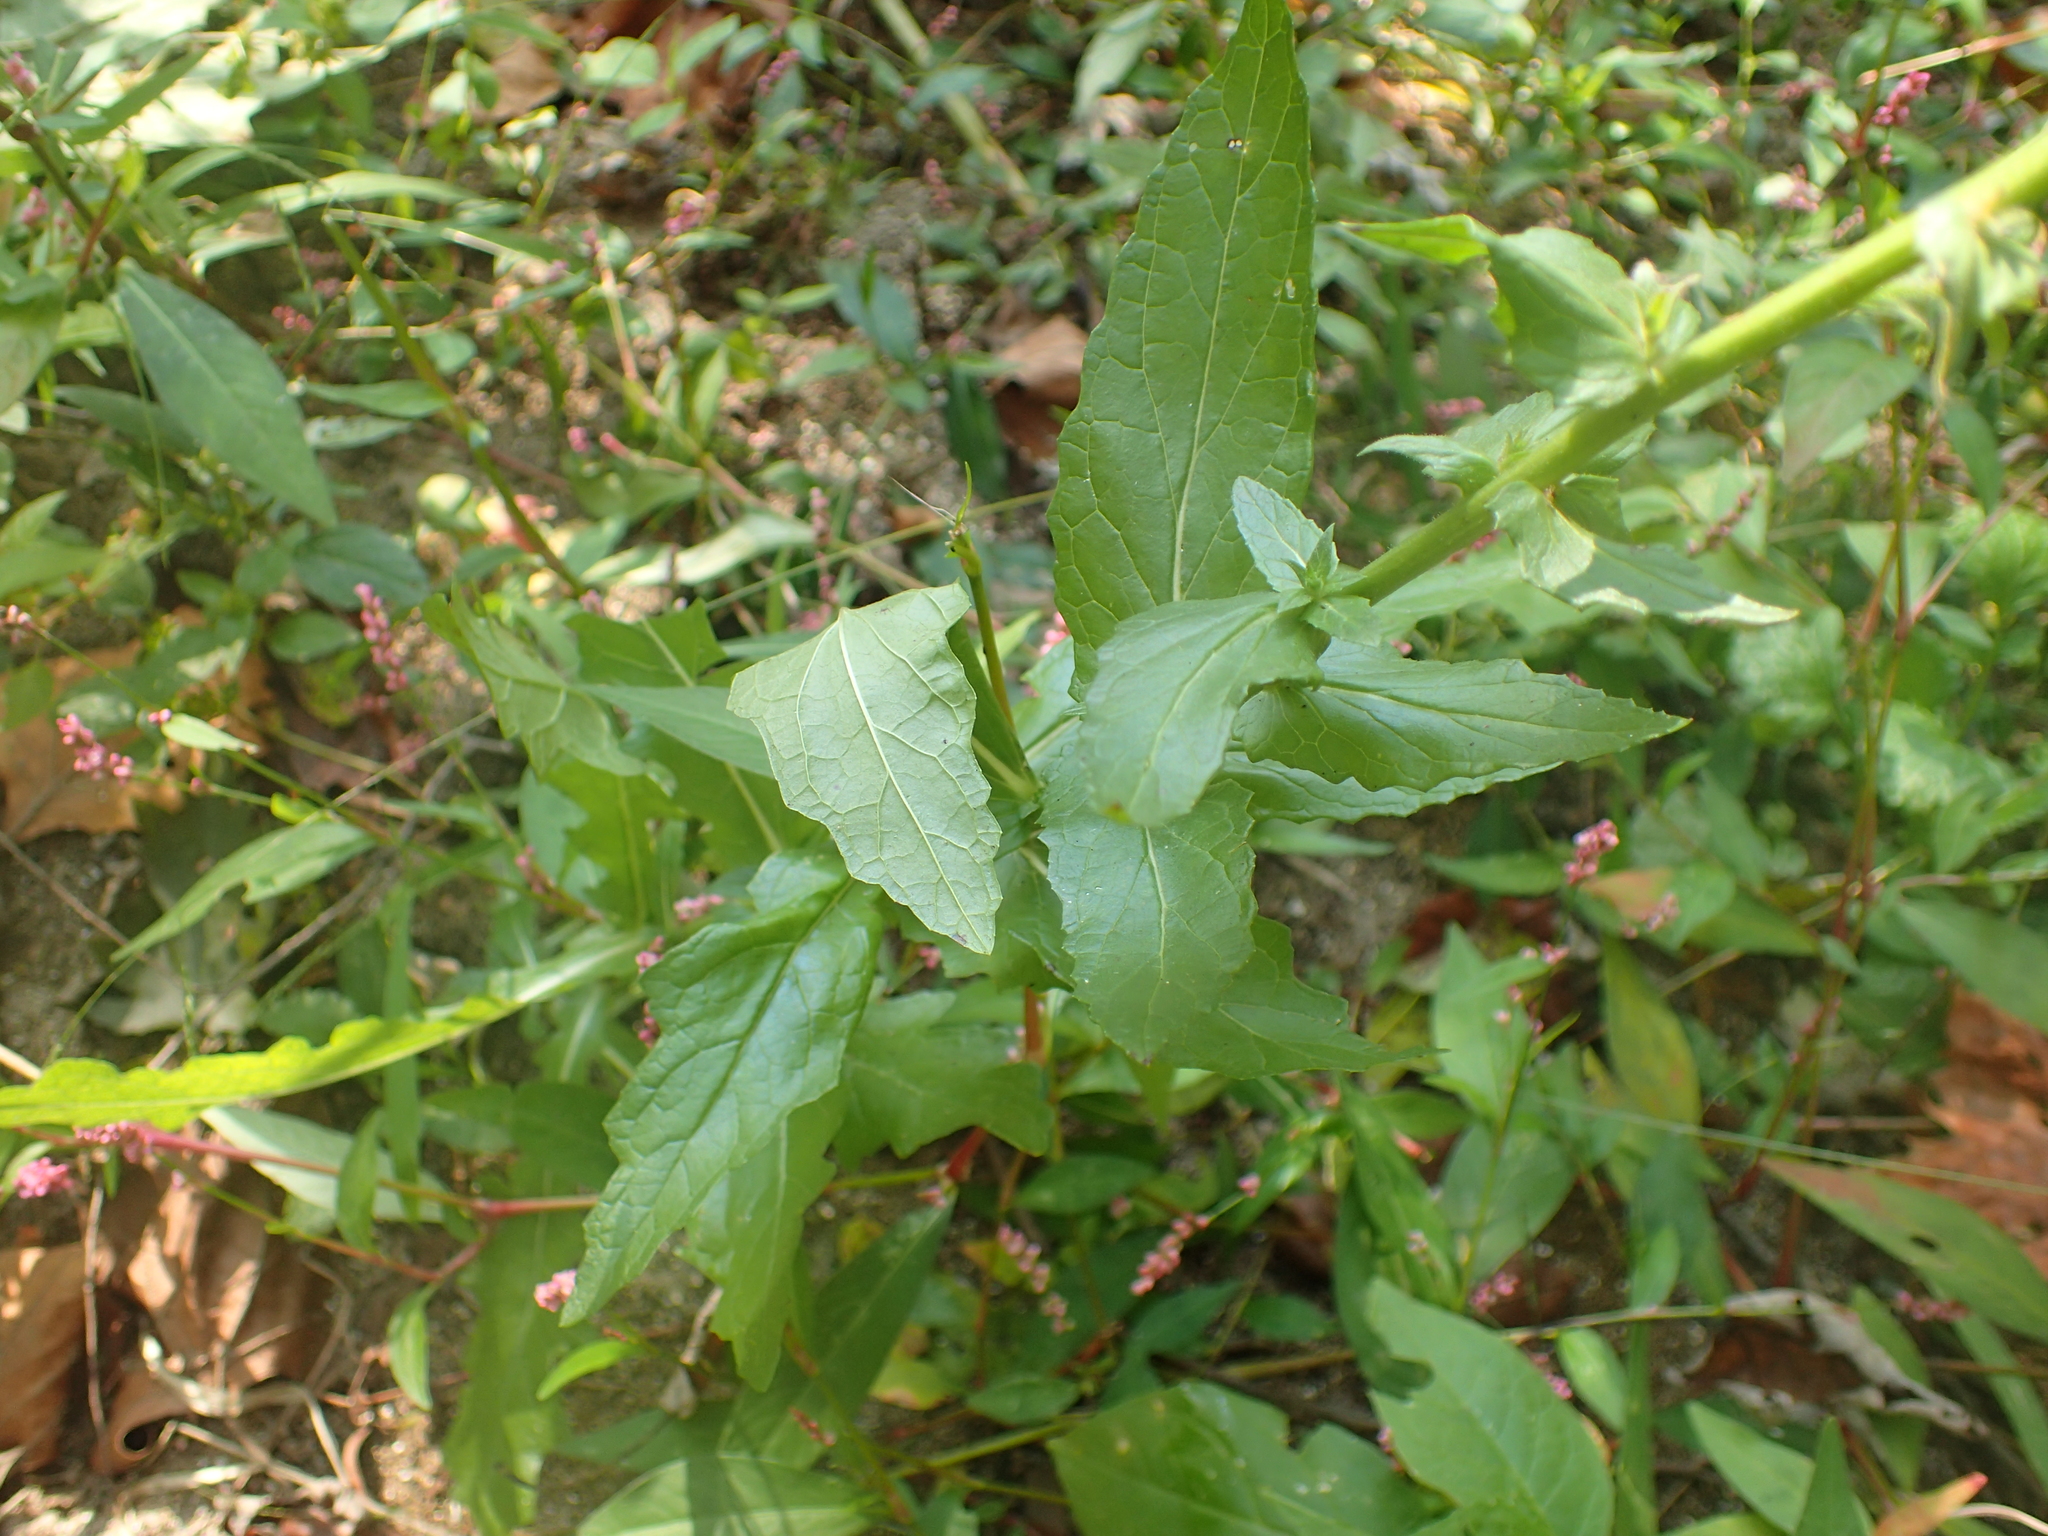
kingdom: Plantae
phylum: Tracheophyta
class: Magnoliopsida
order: Lamiales
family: Scrophulariaceae
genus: Verbascum
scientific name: Verbascum blattaria
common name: Moth mullein
